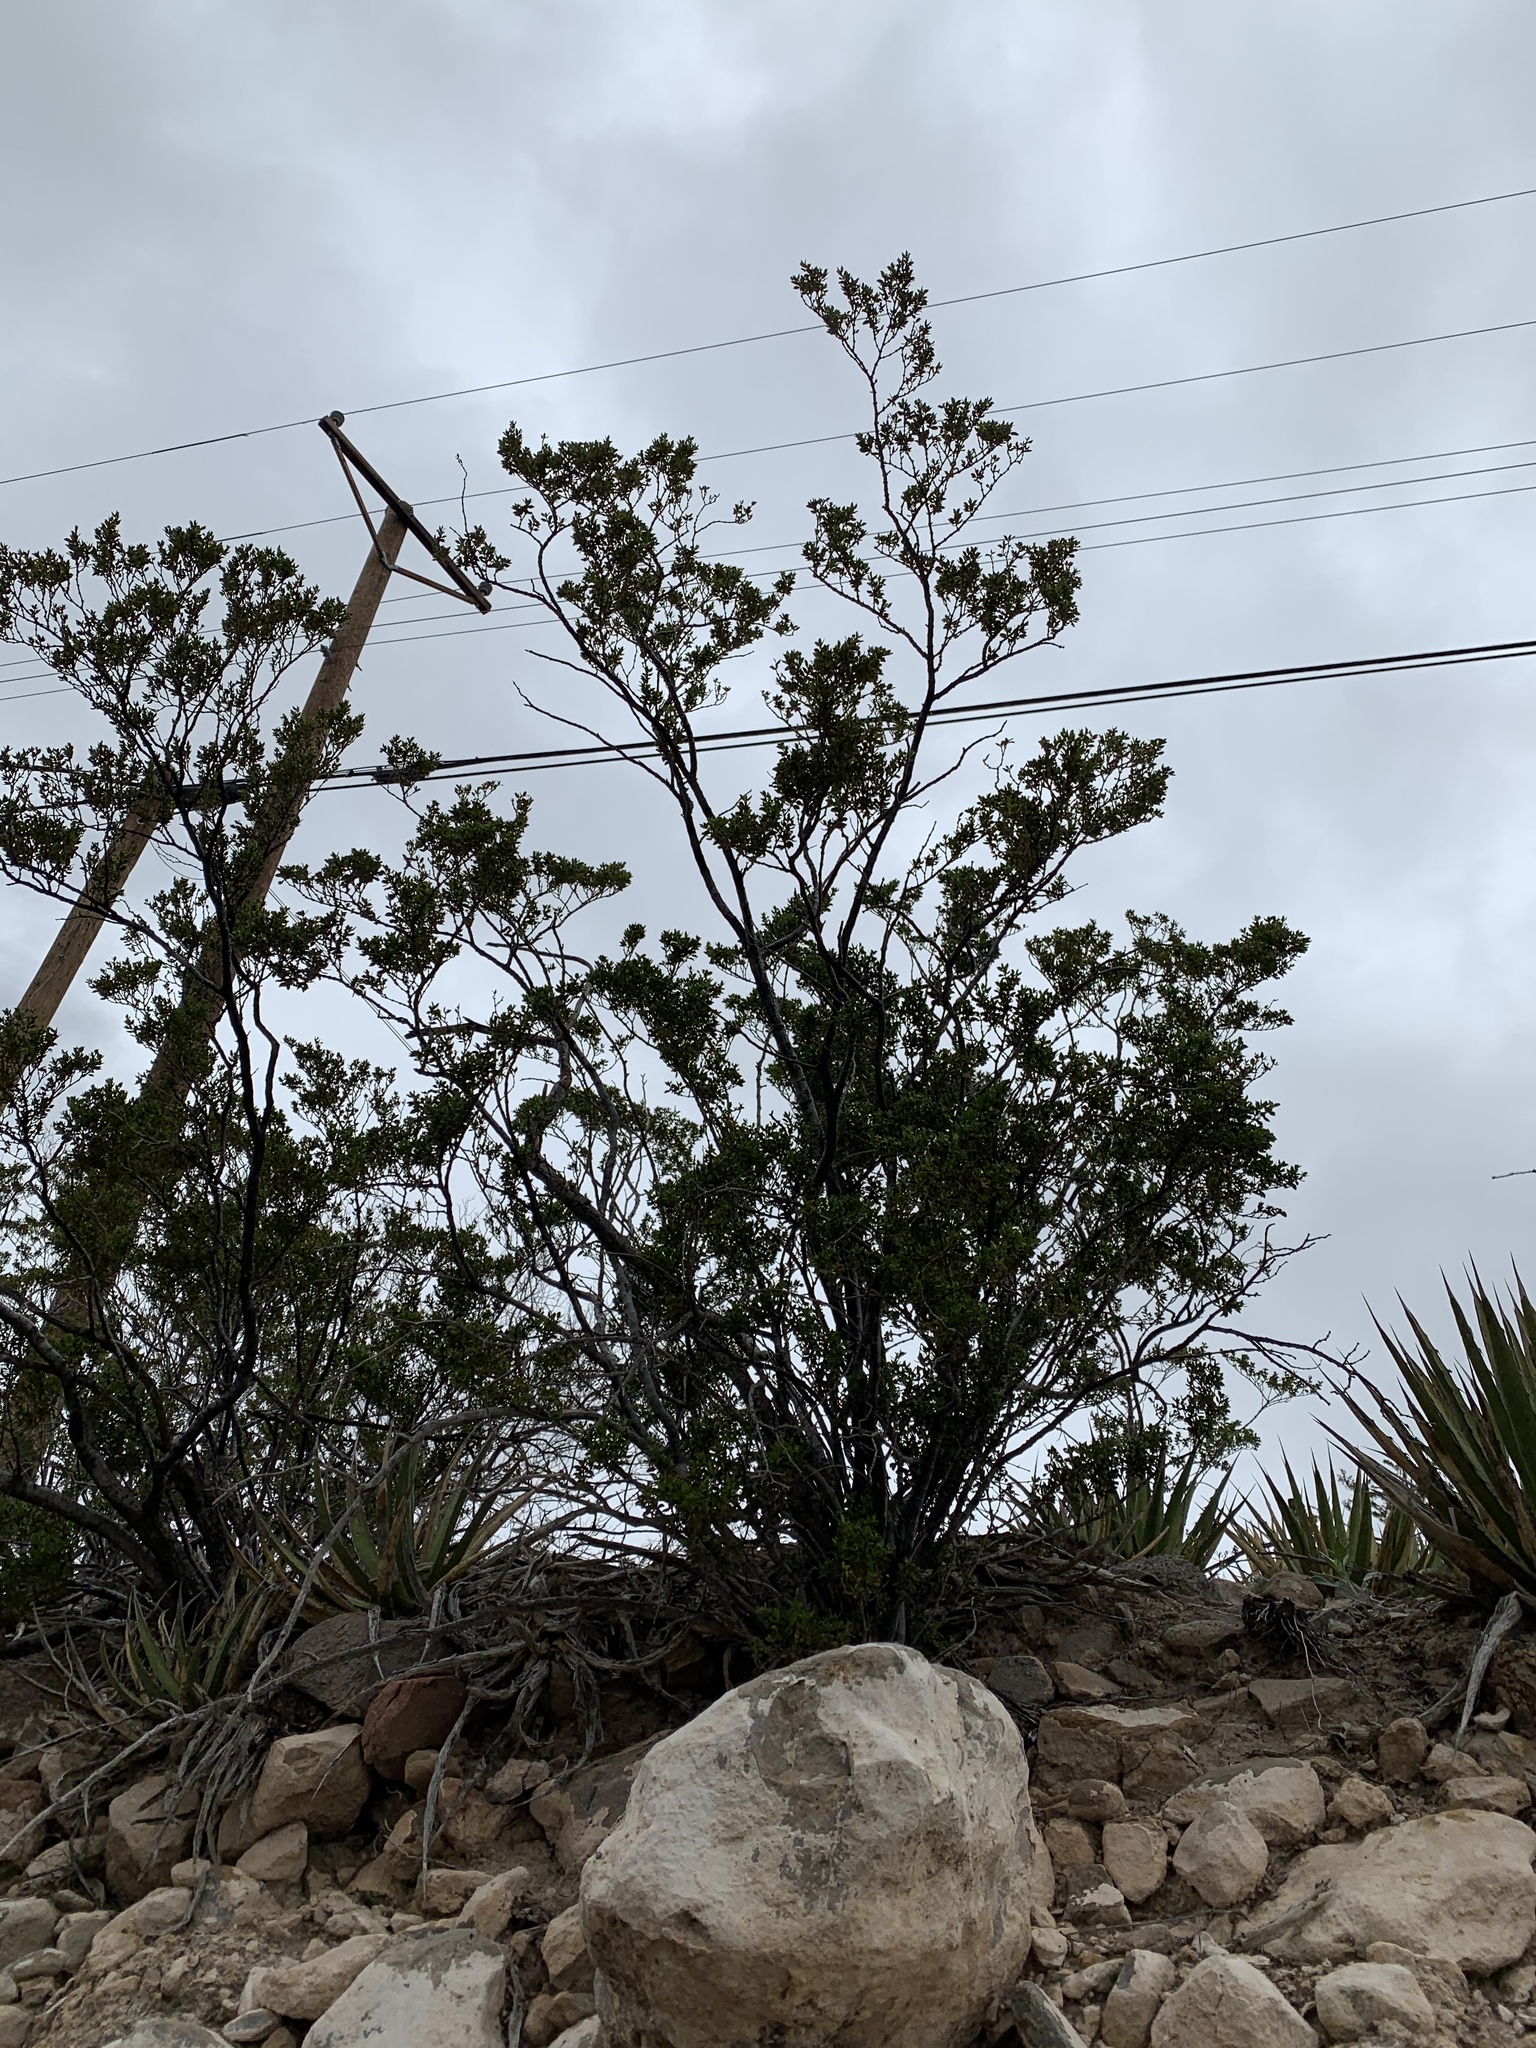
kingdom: Plantae
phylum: Tracheophyta
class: Magnoliopsida
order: Zygophyllales
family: Zygophyllaceae
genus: Larrea
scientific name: Larrea tridentata
